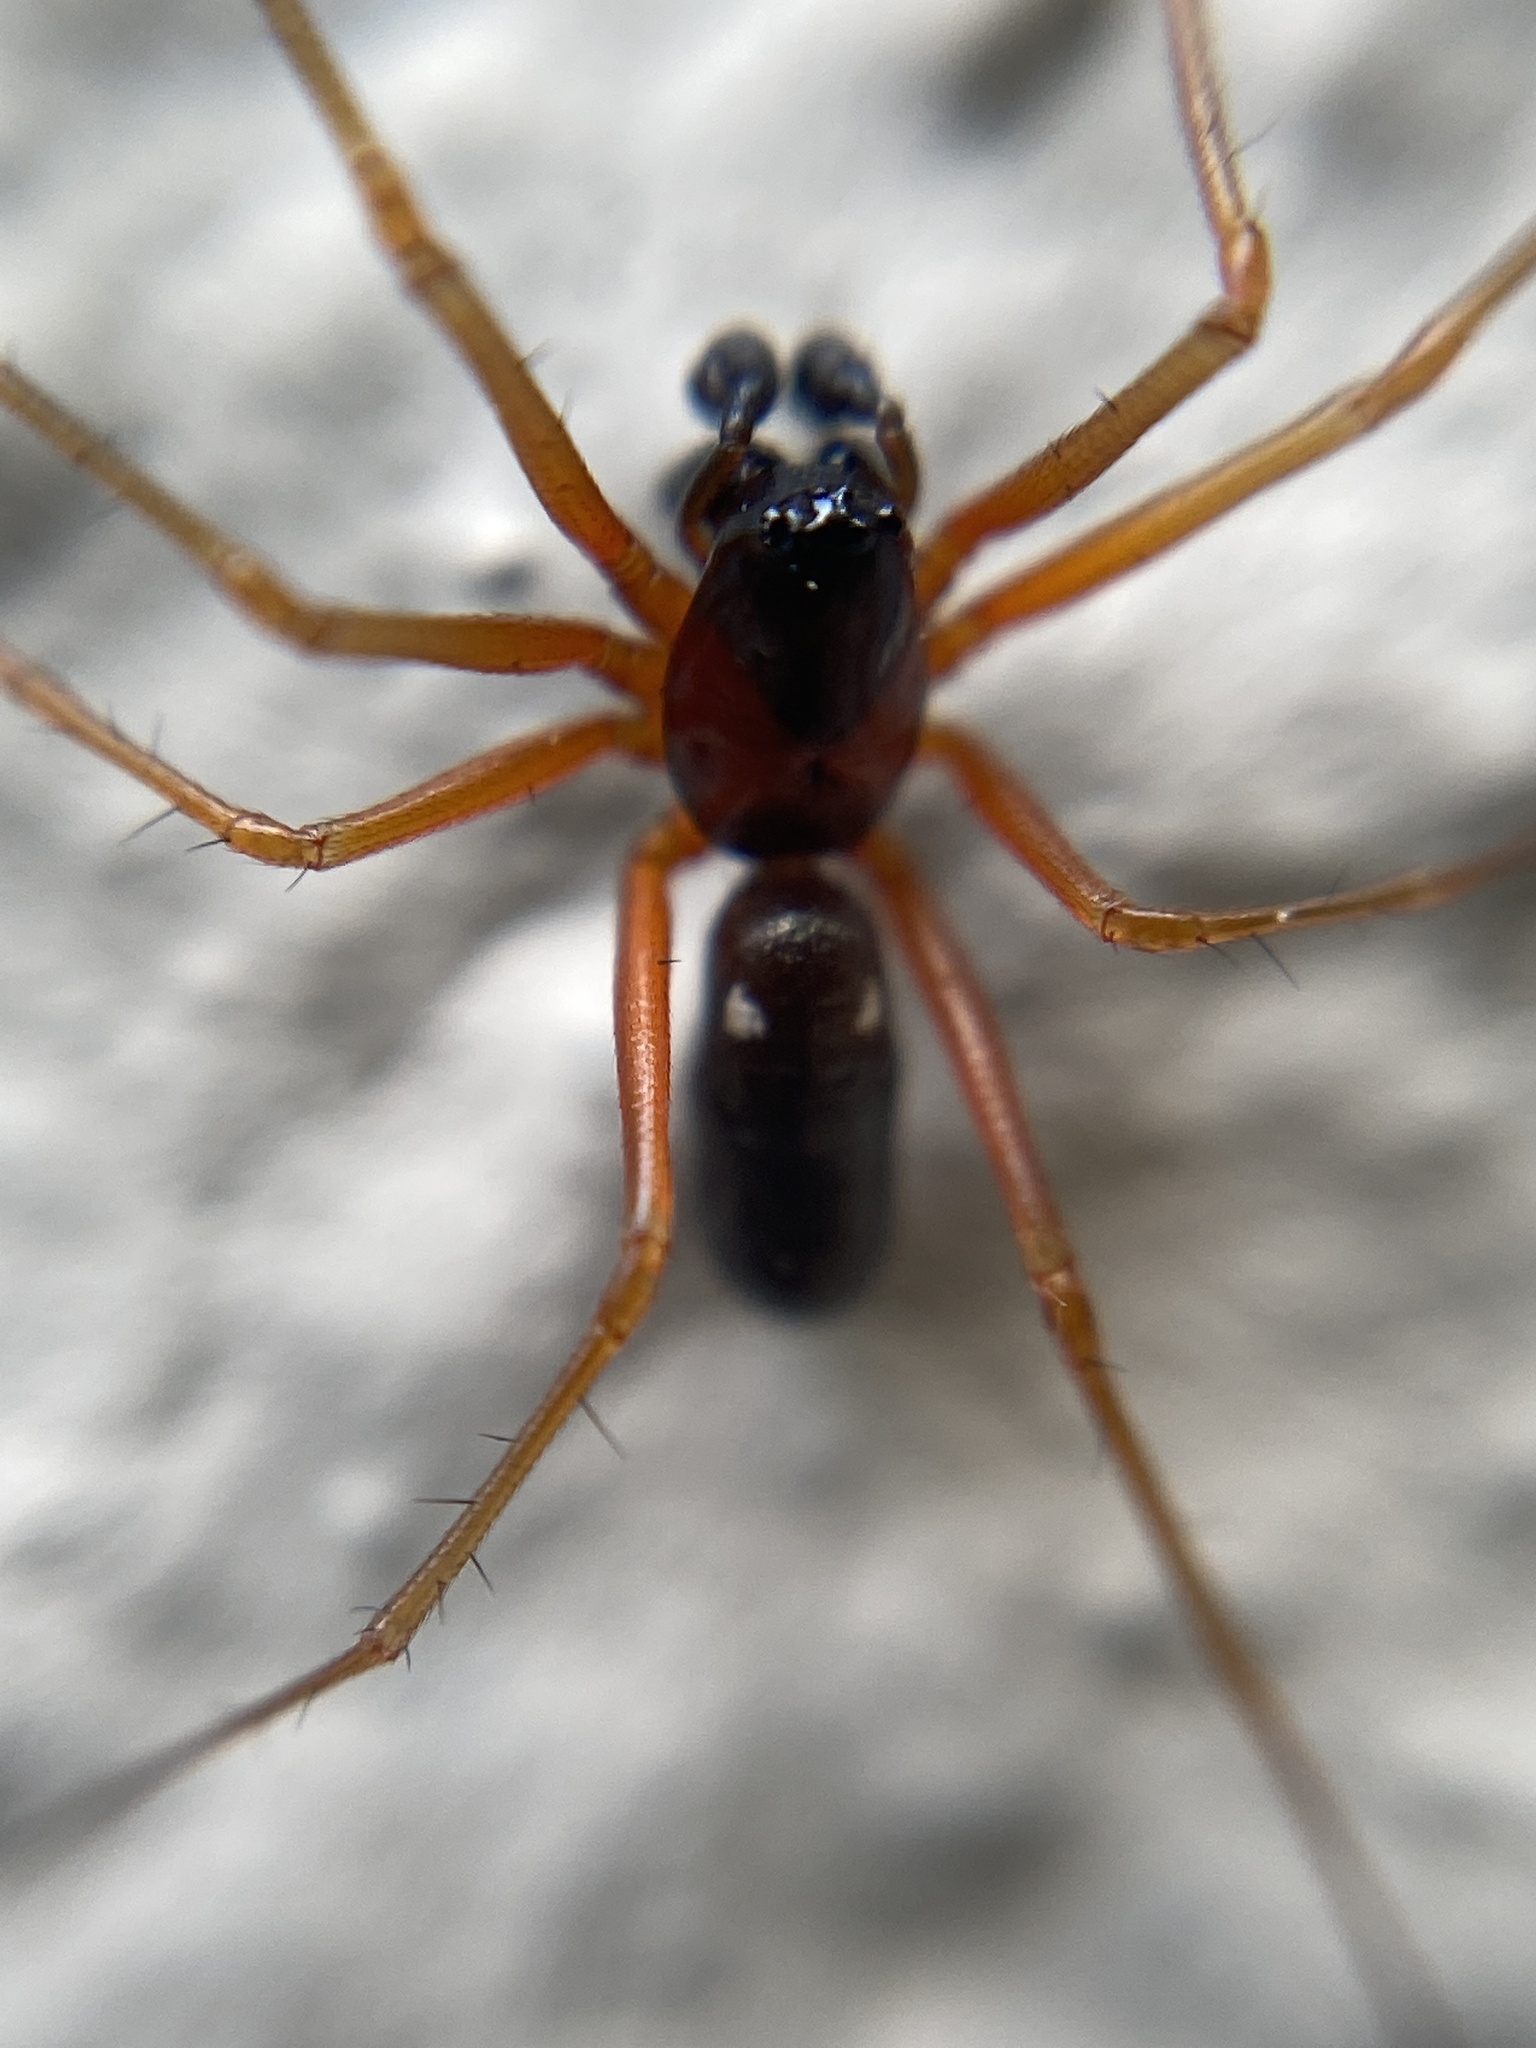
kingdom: Animalia
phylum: Arthropoda
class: Arachnida
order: Araneae
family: Linyphiidae
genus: Linyphia
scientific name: Linyphia hortensis
